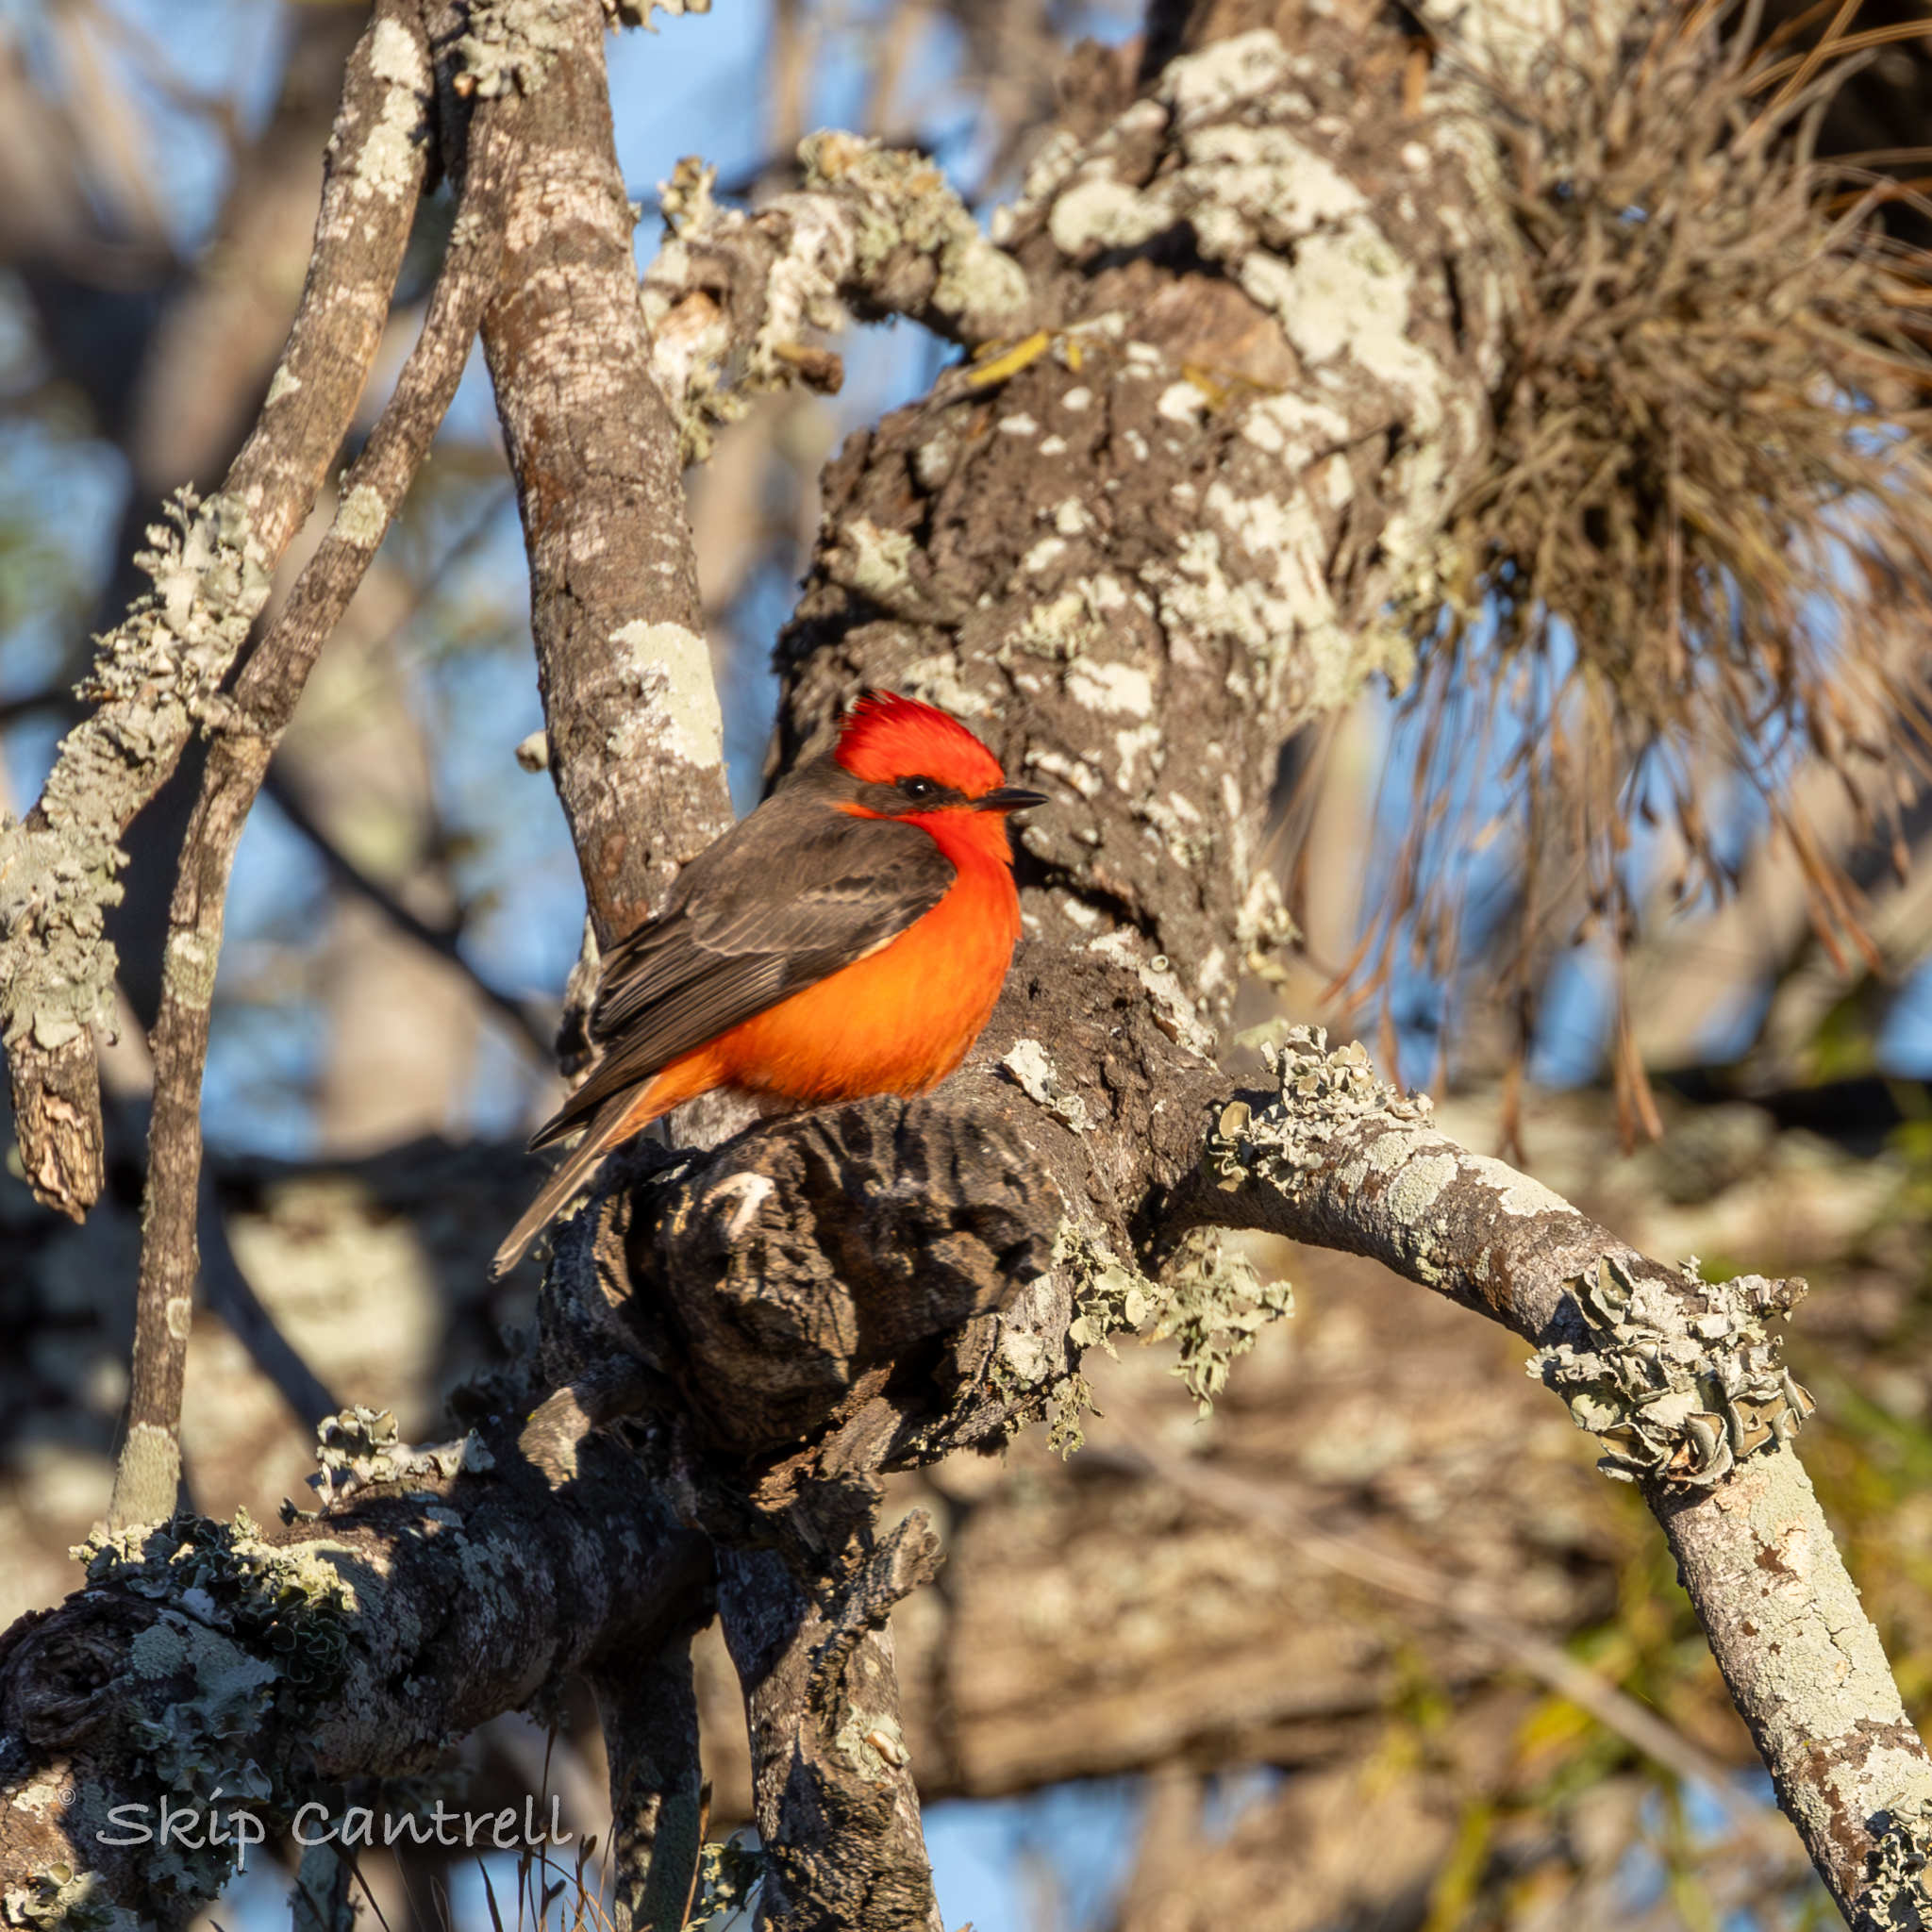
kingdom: Animalia
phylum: Chordata
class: Aves
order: Passeriformes
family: Tyrannidae
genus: Pyrocephalus
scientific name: Pyrocephalus rubinus
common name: Vermilion flycatcher
